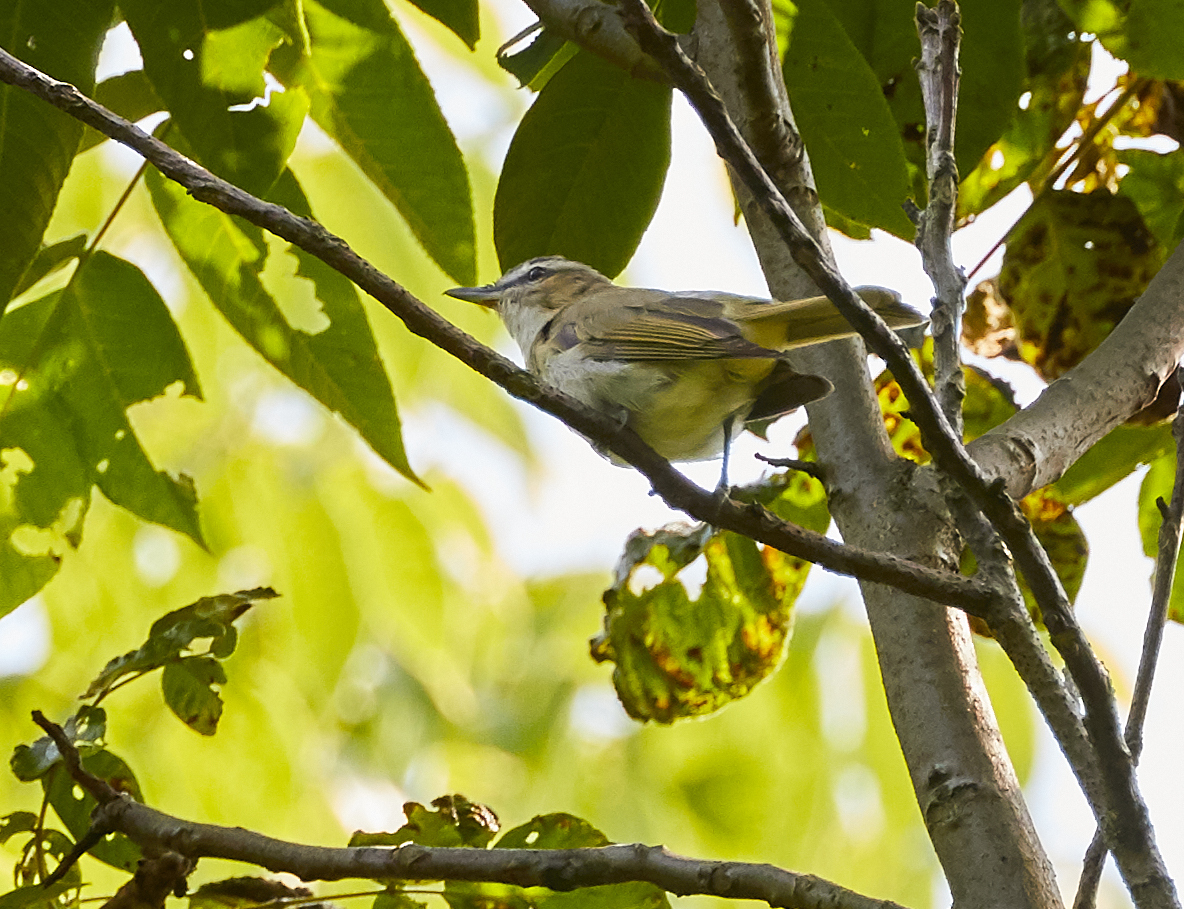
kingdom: Animalia
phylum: Chordata
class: Aves
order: Passeriformes
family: Vireonidae
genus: Vireo
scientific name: Vireo olivaceus
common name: Red-eyed vireo
